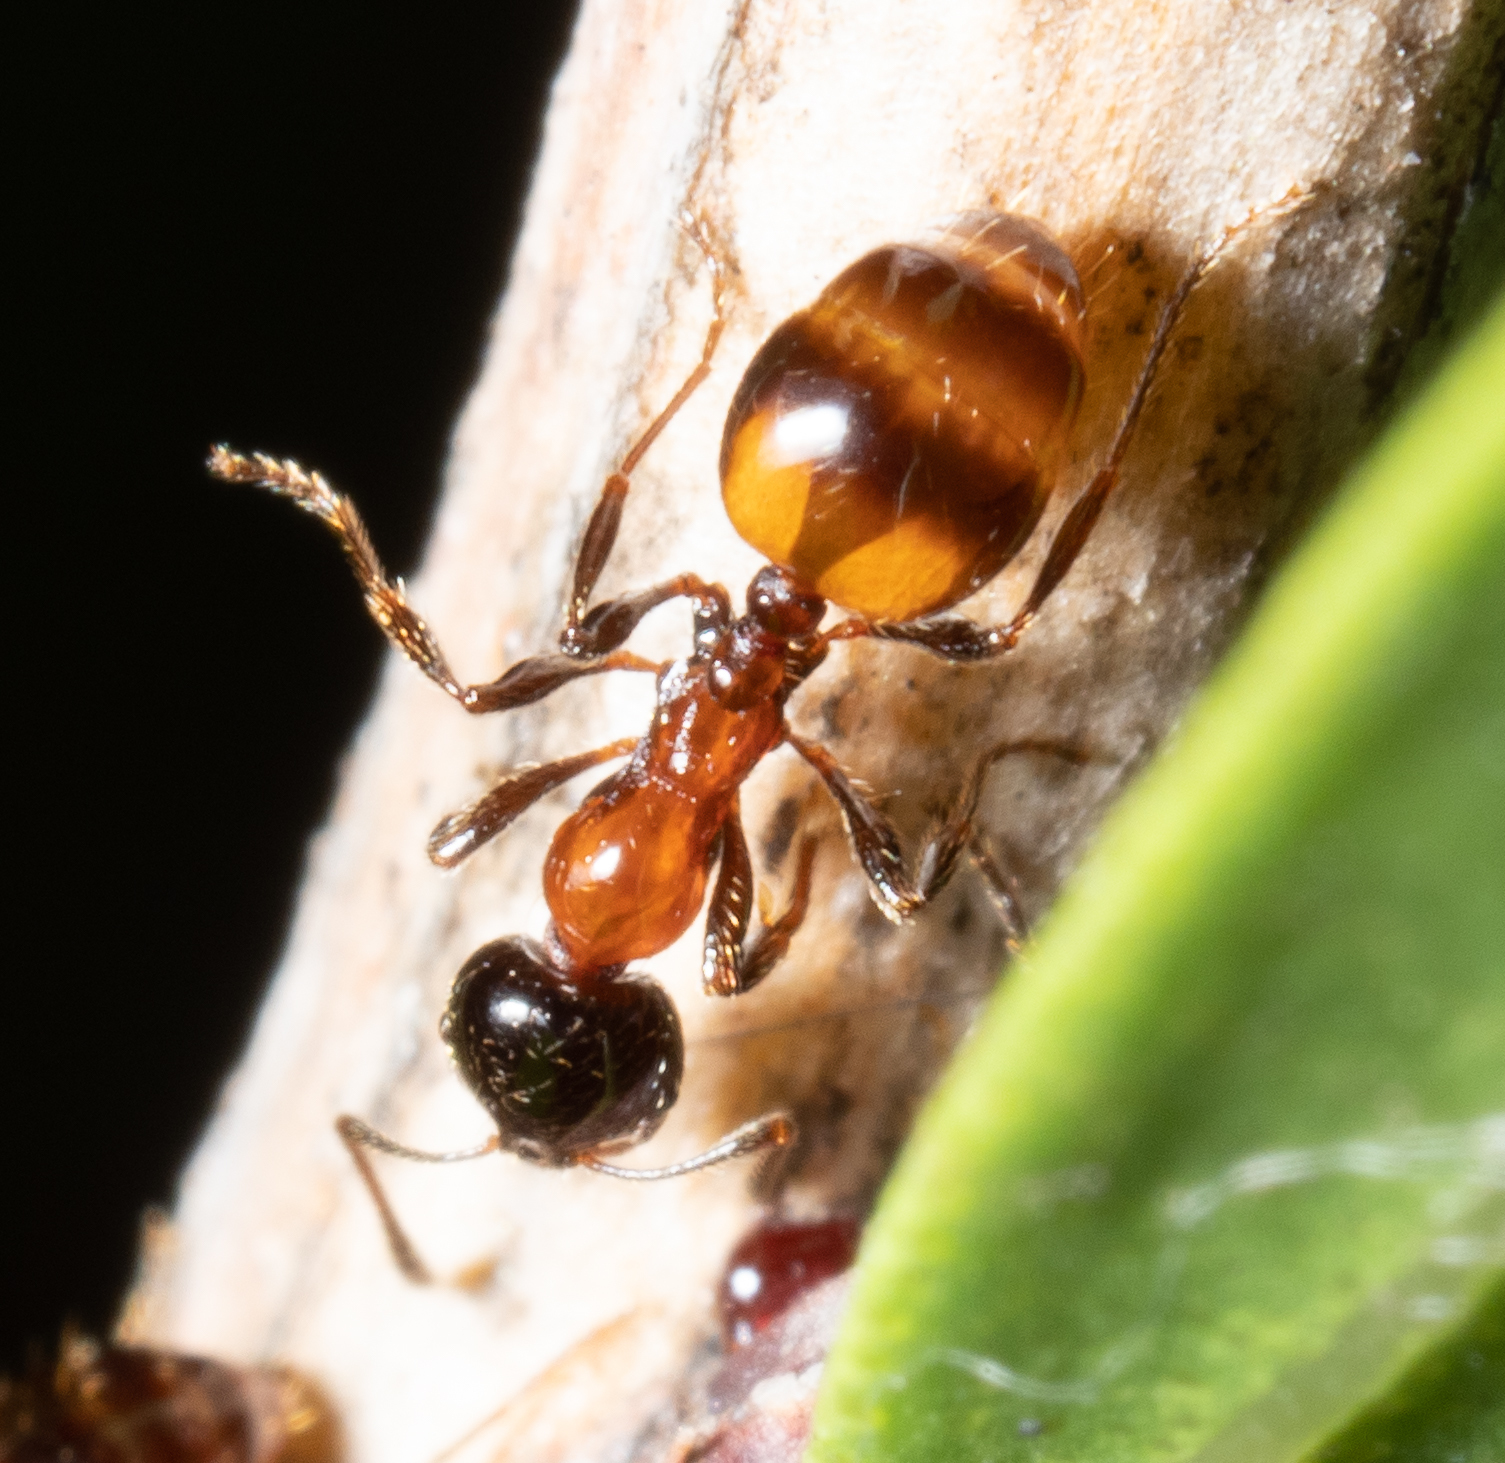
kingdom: Animalia
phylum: Arthropoda
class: Insecta
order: Hymenoptera
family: Formicidae
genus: Chelaner
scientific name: Chelaner
